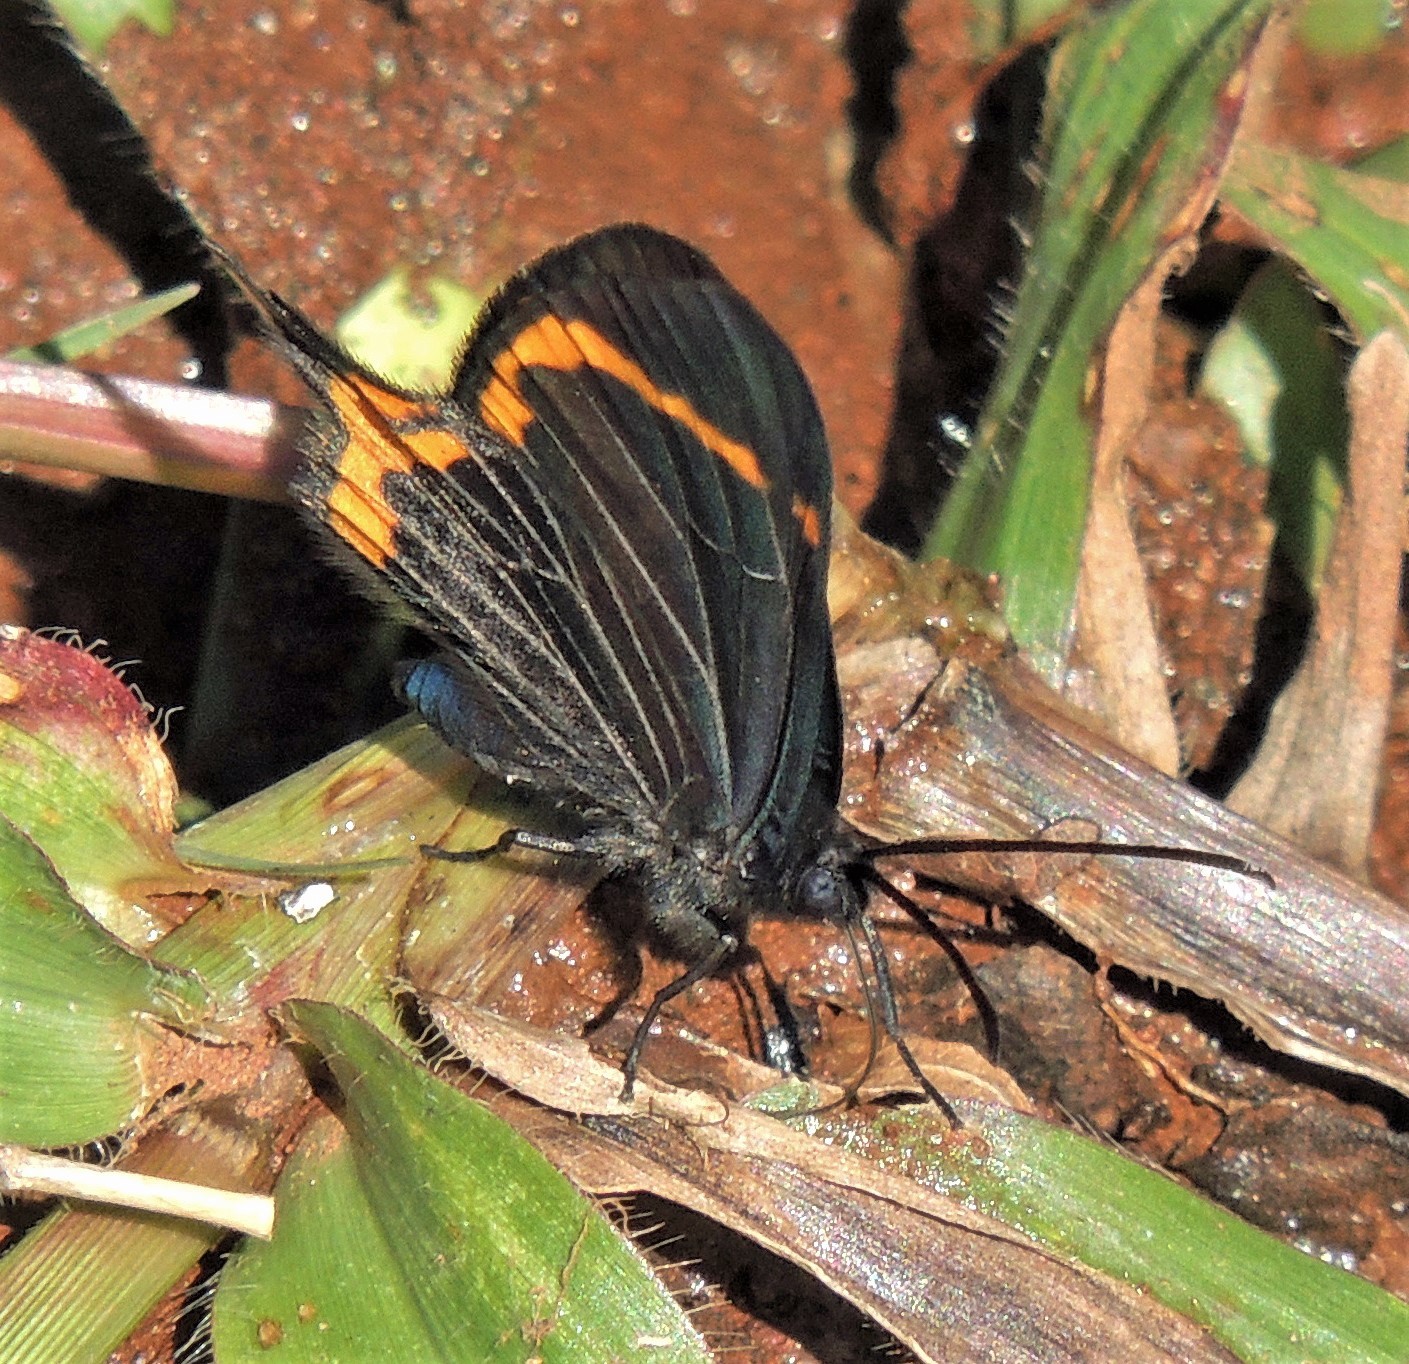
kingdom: Animalia
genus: Barbicornis
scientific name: Barbicornis basilis
